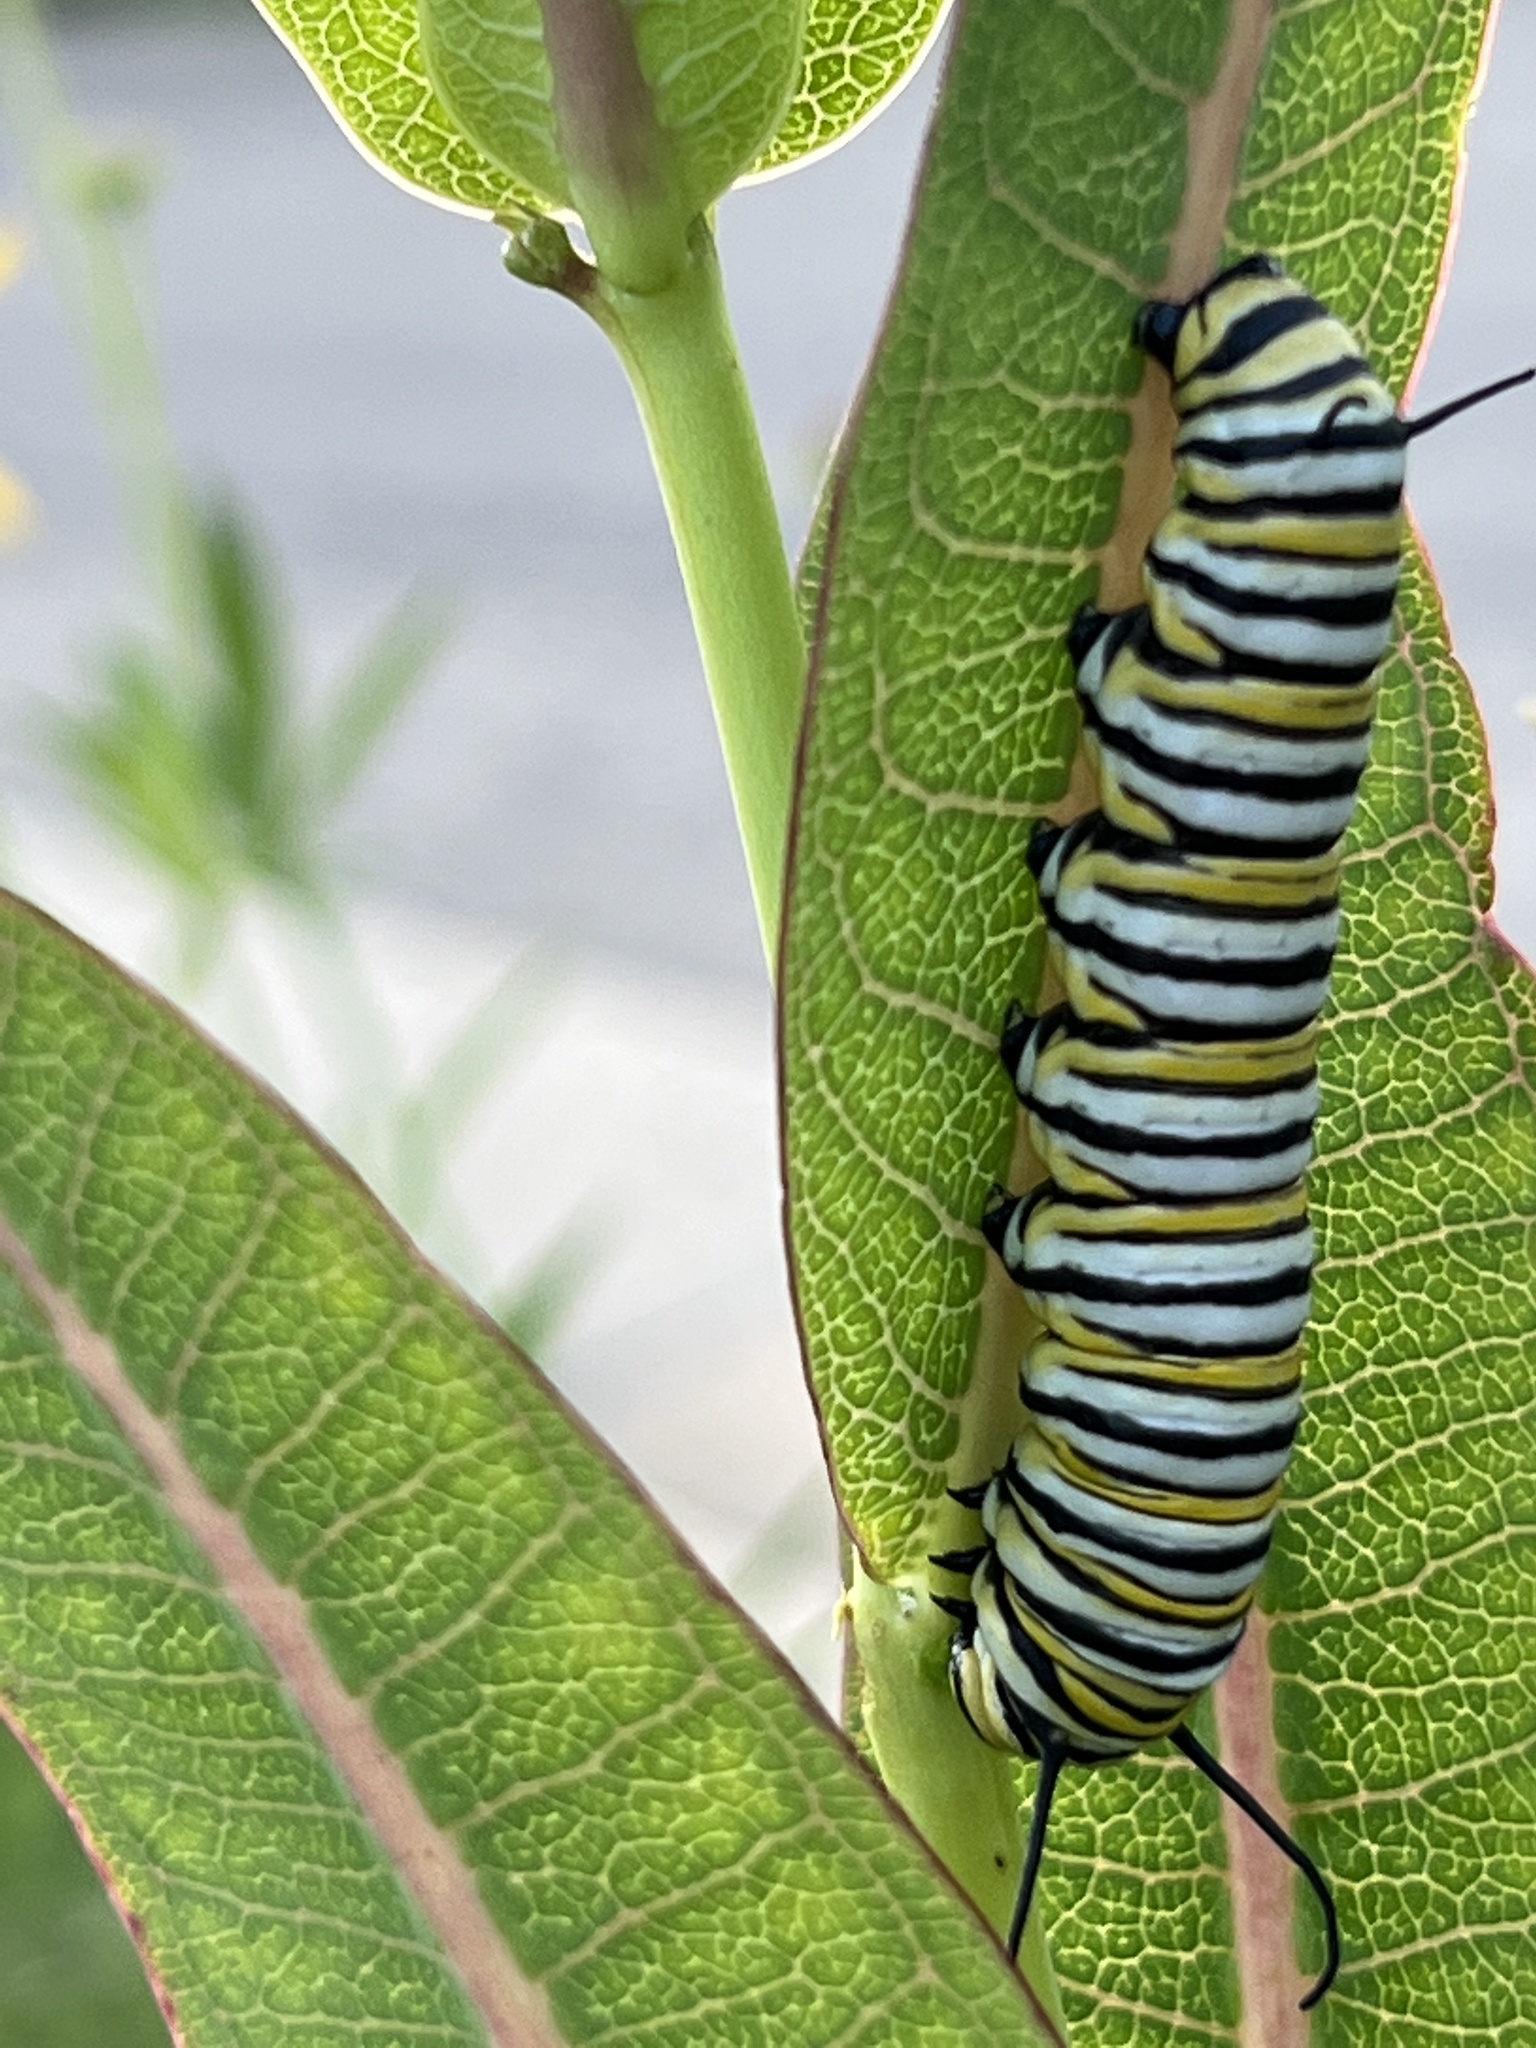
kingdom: Animalia
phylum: Arthropoda
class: Insecta
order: Lepidoptera
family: Nymphalidae
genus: Danaus
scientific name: Danaus plexippus
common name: Monarch
